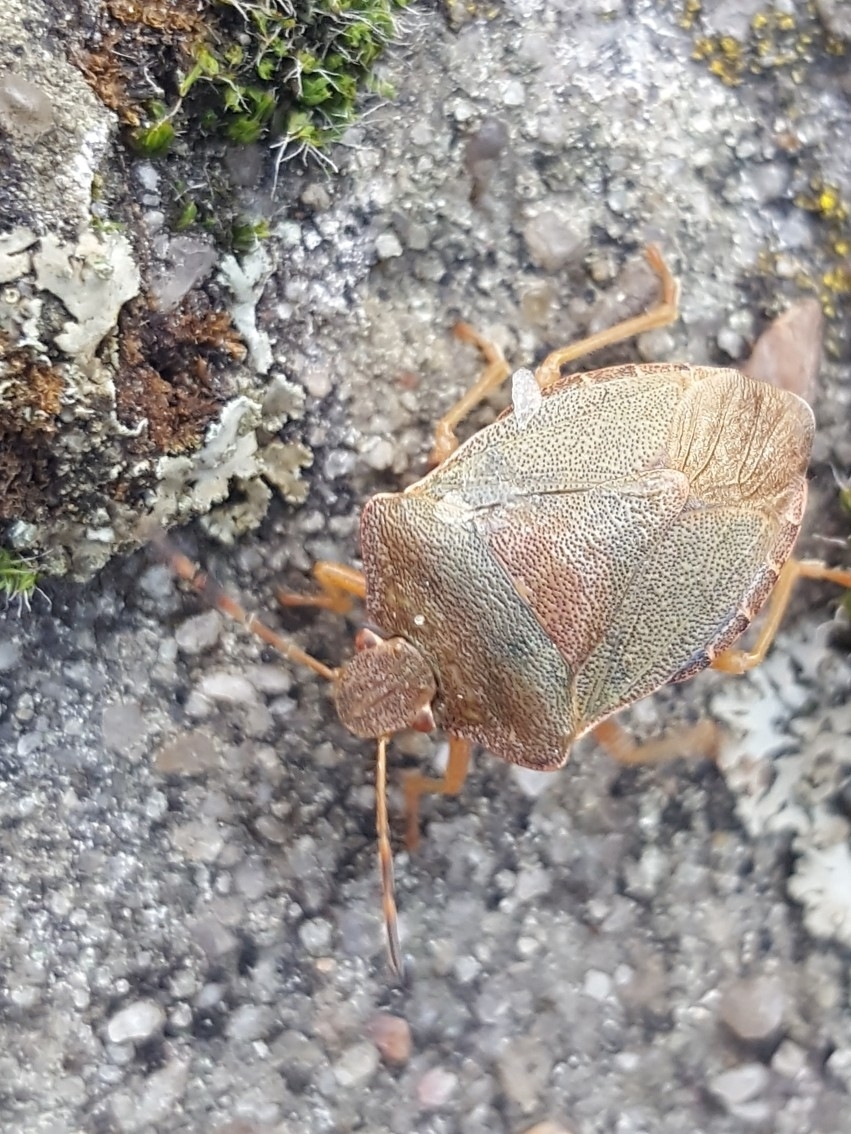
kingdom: Animalia
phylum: Arthropoda
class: Insecta
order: Hemiptera
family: Pentatomidae
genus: Palomena
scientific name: Palomena prasina
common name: Green shieldbug
